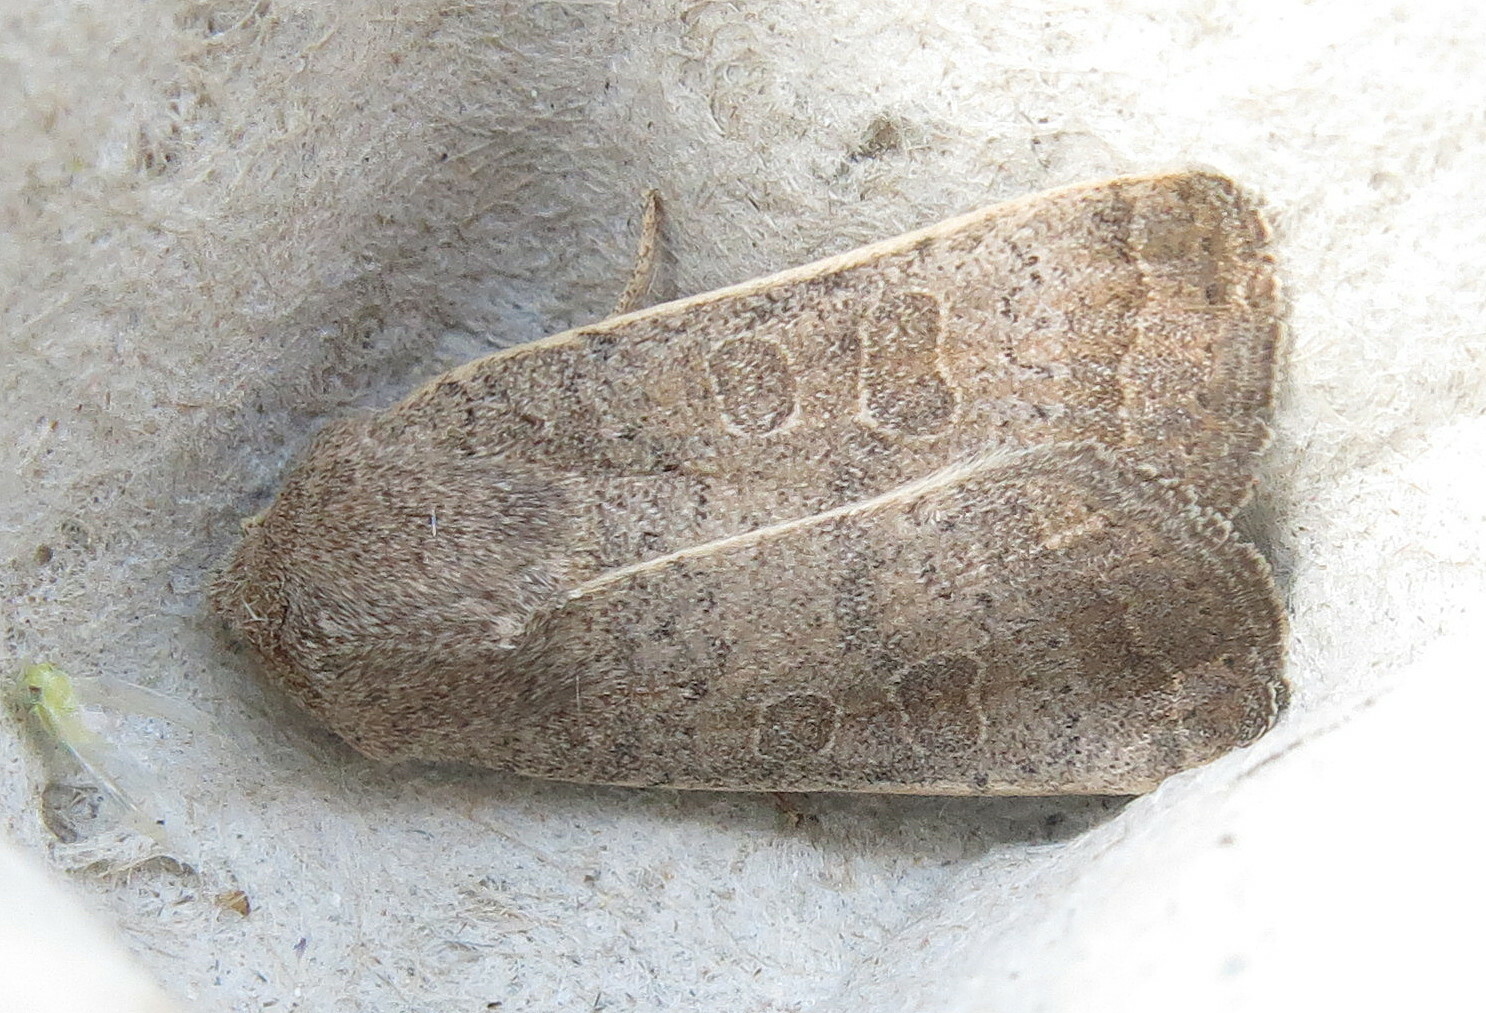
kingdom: Animalia
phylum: Arthropoda
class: Insecta
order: Lepidoptera
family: Noctuidae
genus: Hoplodrina
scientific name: Hoplodrina ambigua
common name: Vine's rustic
